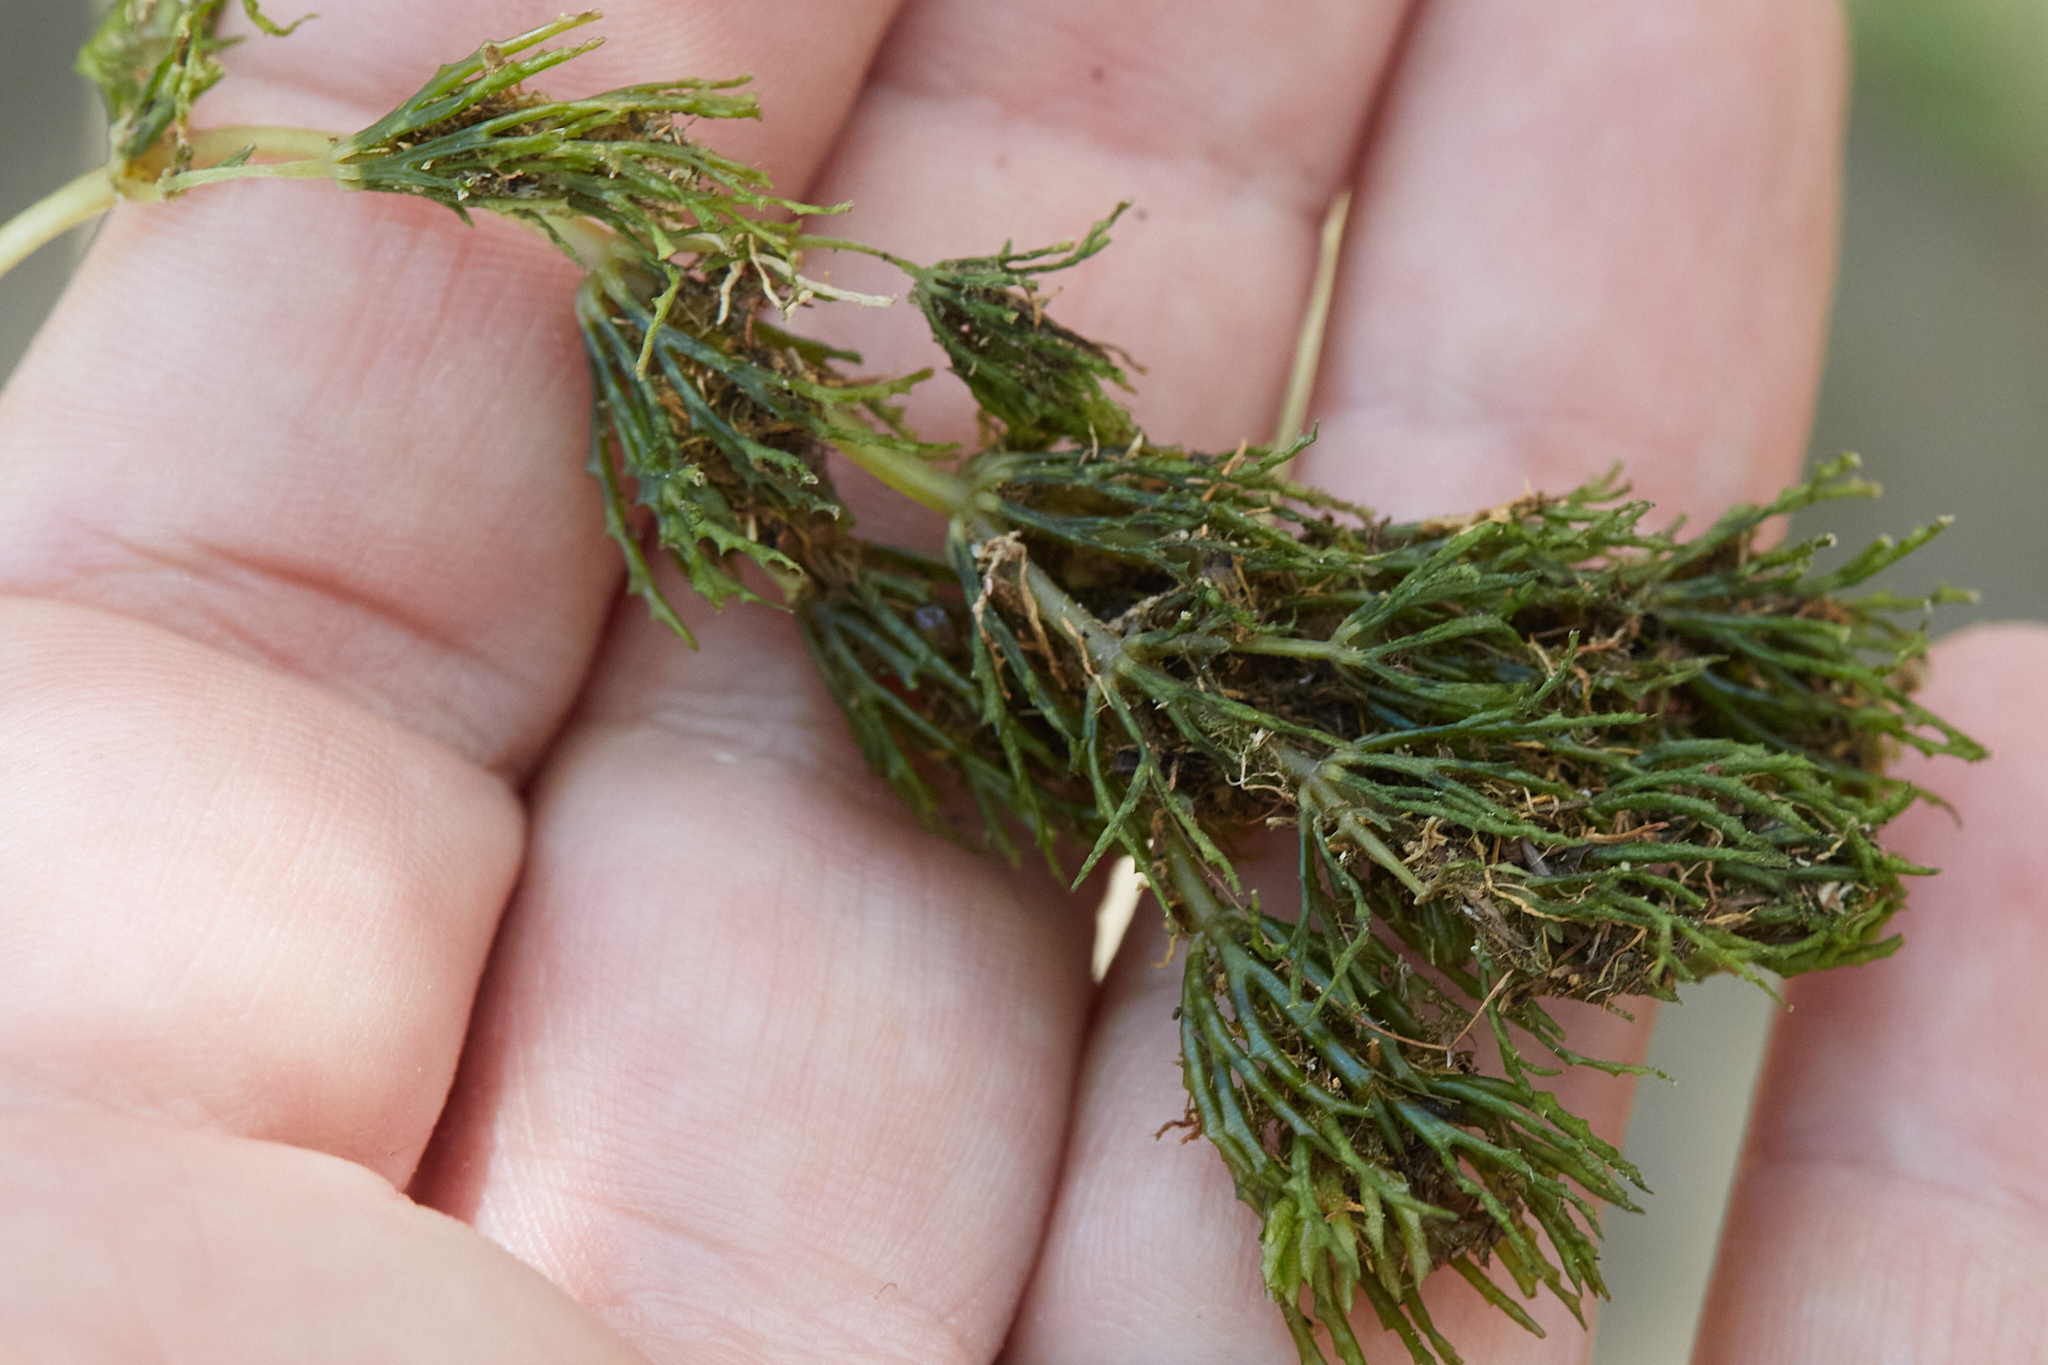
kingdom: Plantae
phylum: Tracheophyta
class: Magnoliopsida
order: Ceratophyllales
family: Ceratophyllaceae
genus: Ceratophyllum
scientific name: Ceratophyllum demersum
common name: Rigid hornwort
